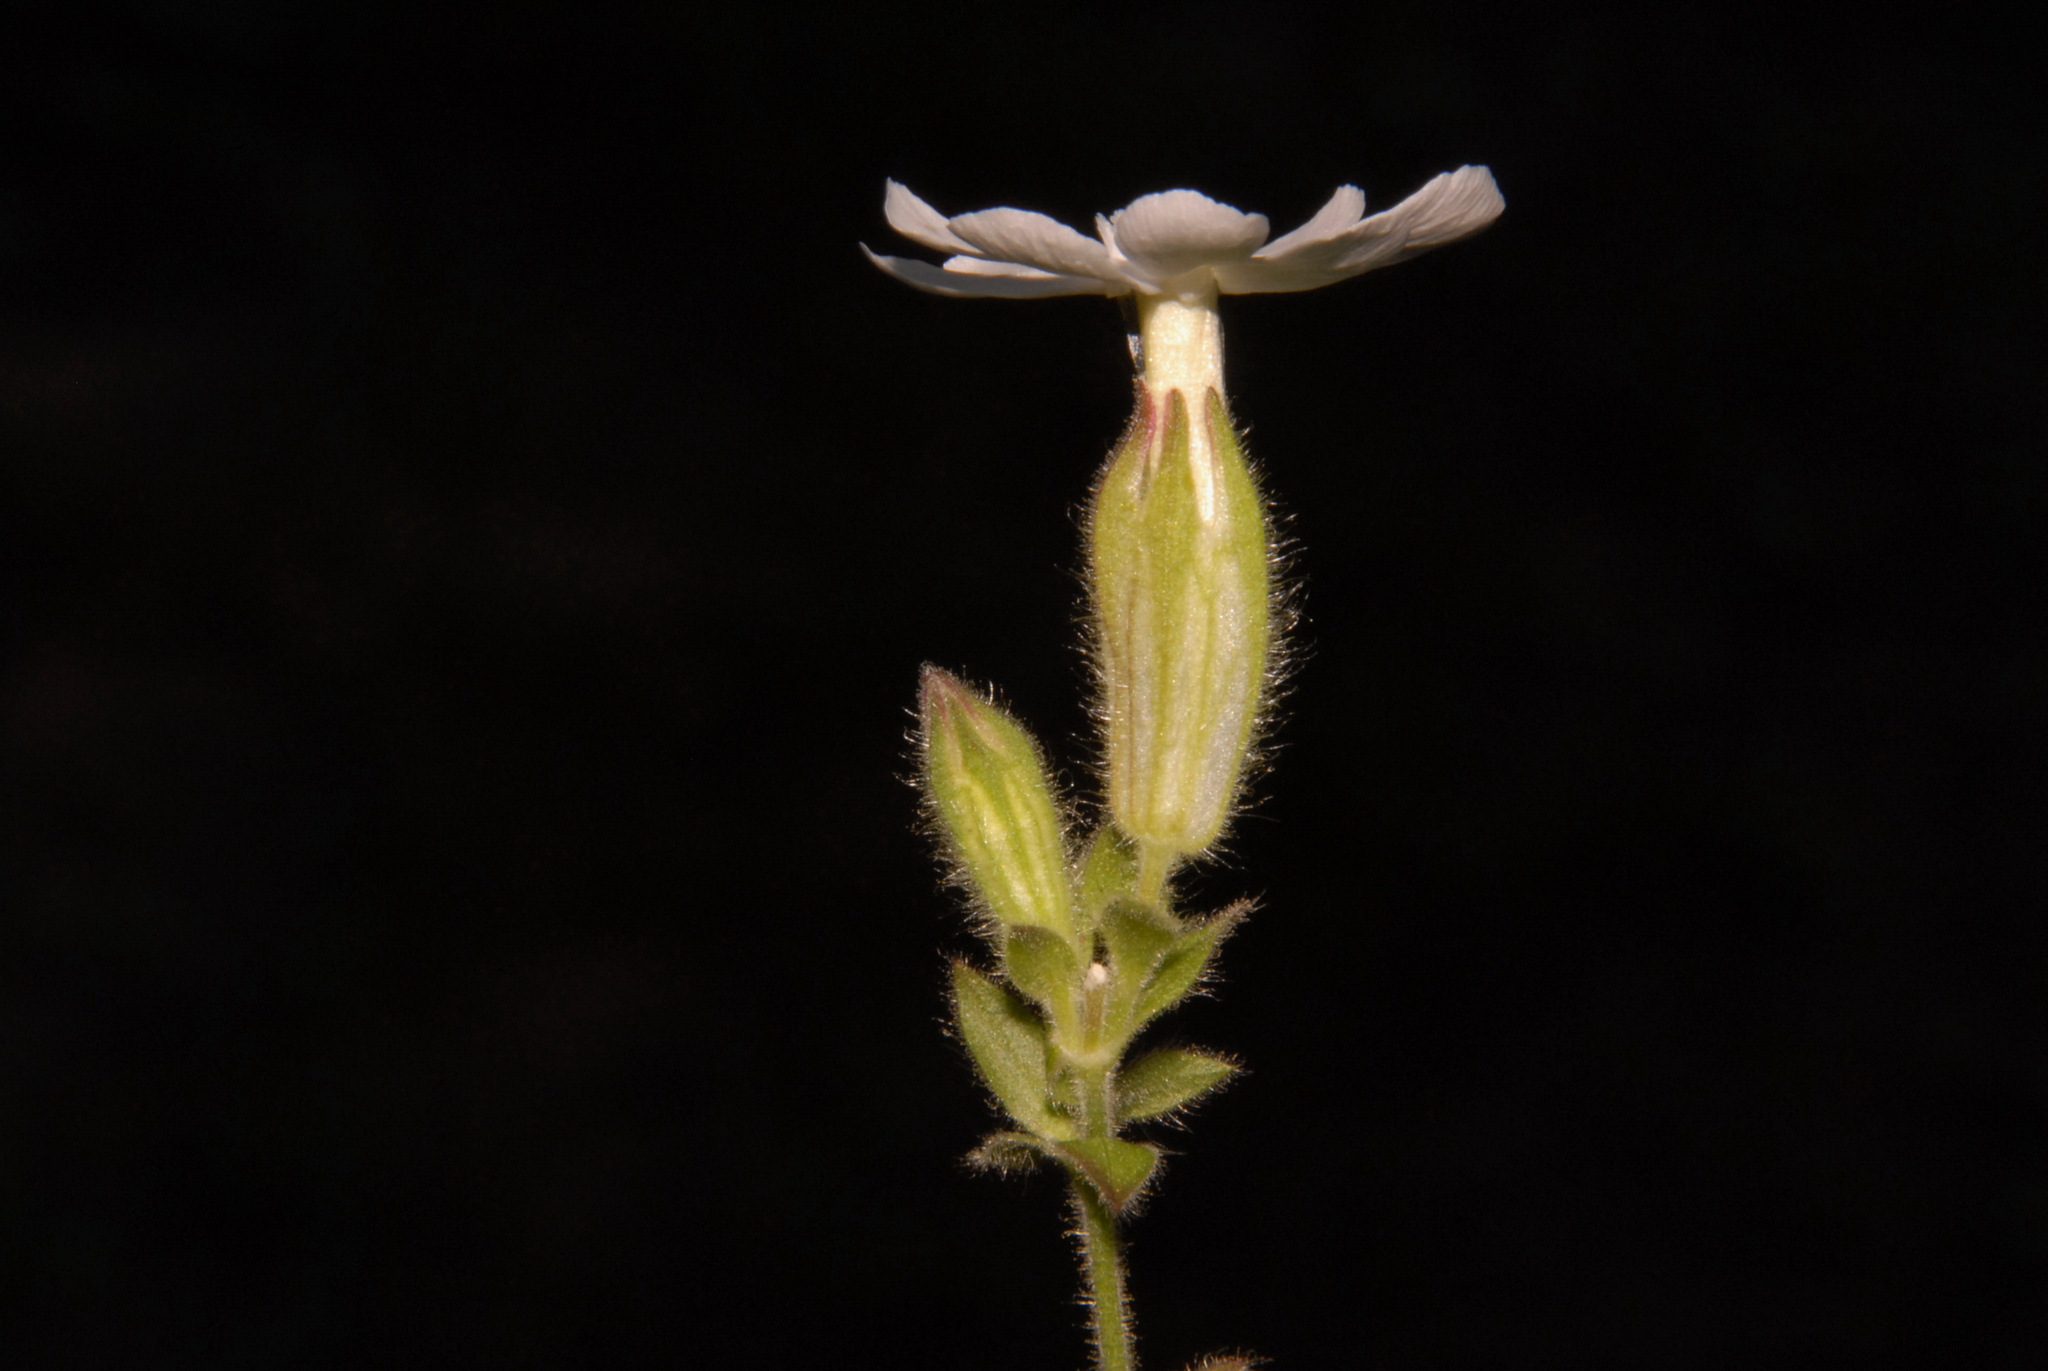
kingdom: Plantae
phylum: Tracheophyta
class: Magnoliopsida
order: Caryophyllales
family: Caryophyllaceae
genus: Silene
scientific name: Silene latifolia
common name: White campion
